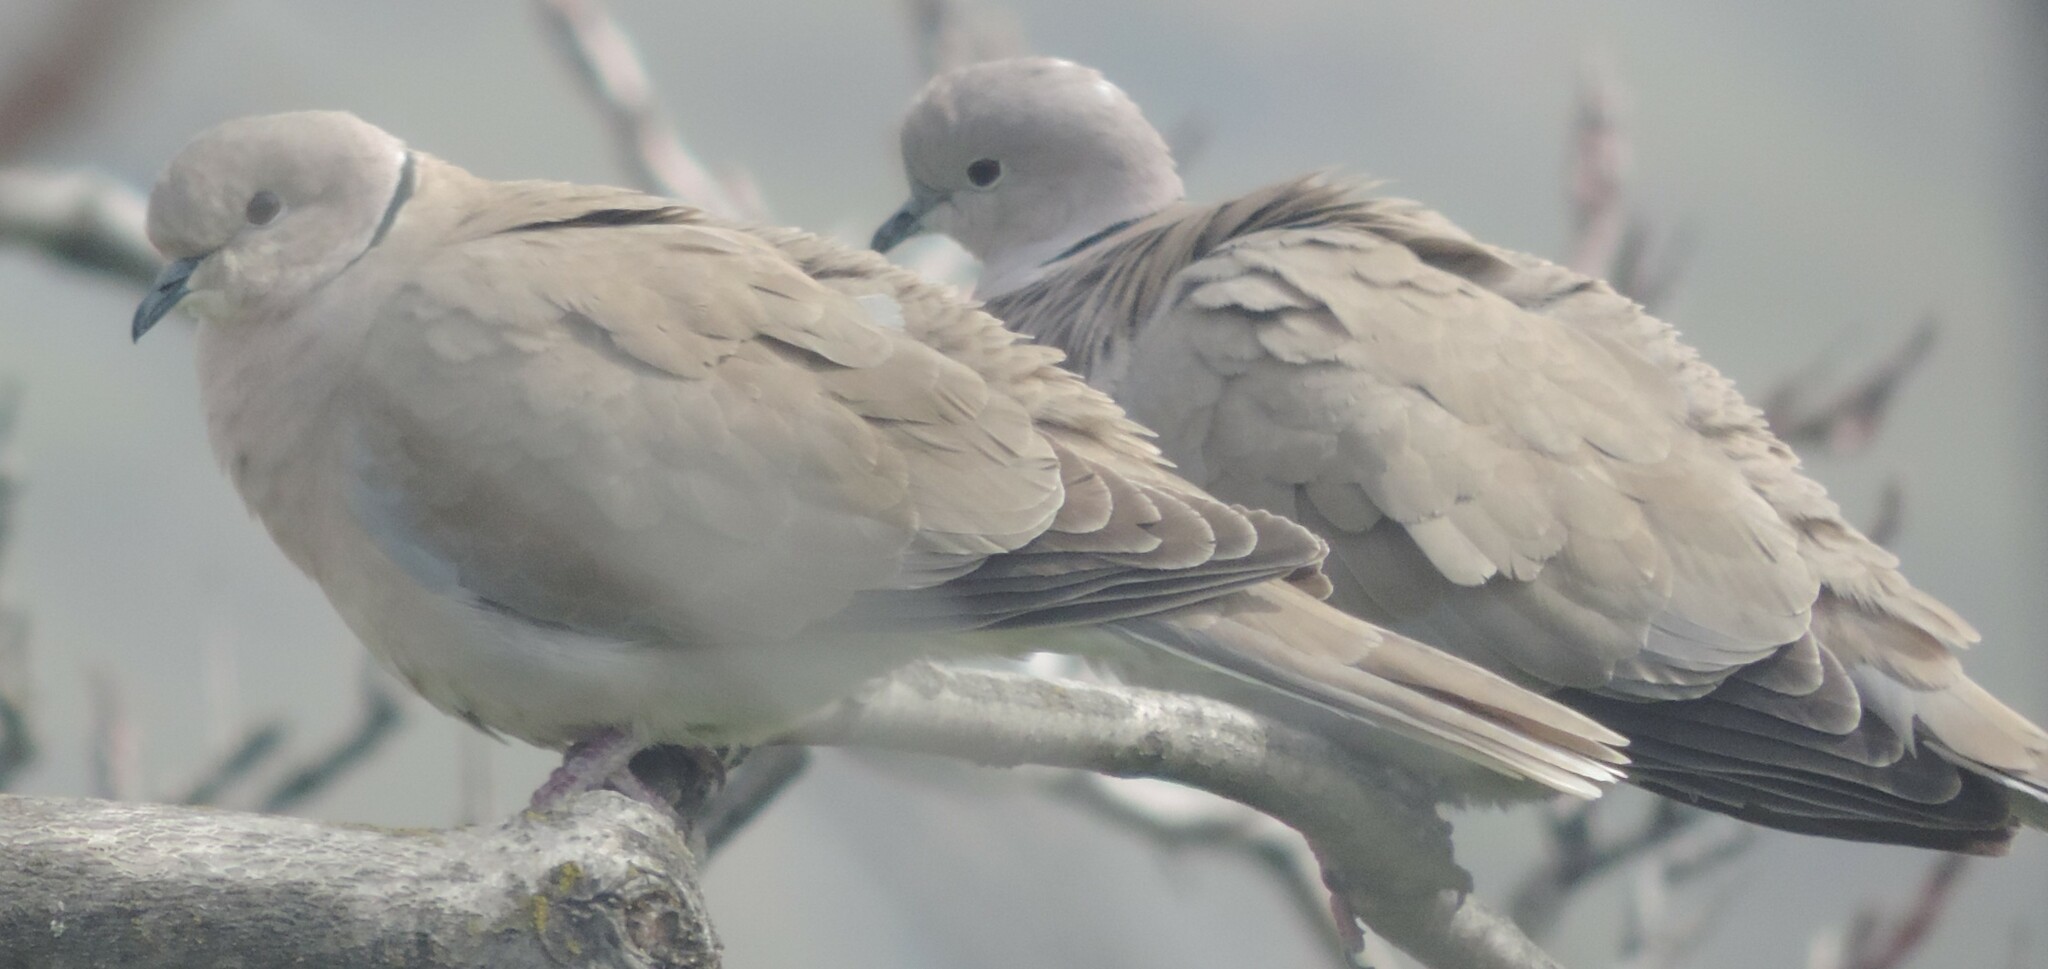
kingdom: Animalia
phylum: Chordata
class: Aves
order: Columbiformes
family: Columbidae
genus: Streptopelia
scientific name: Streptopelia decaocto
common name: Eurasian collared dove
